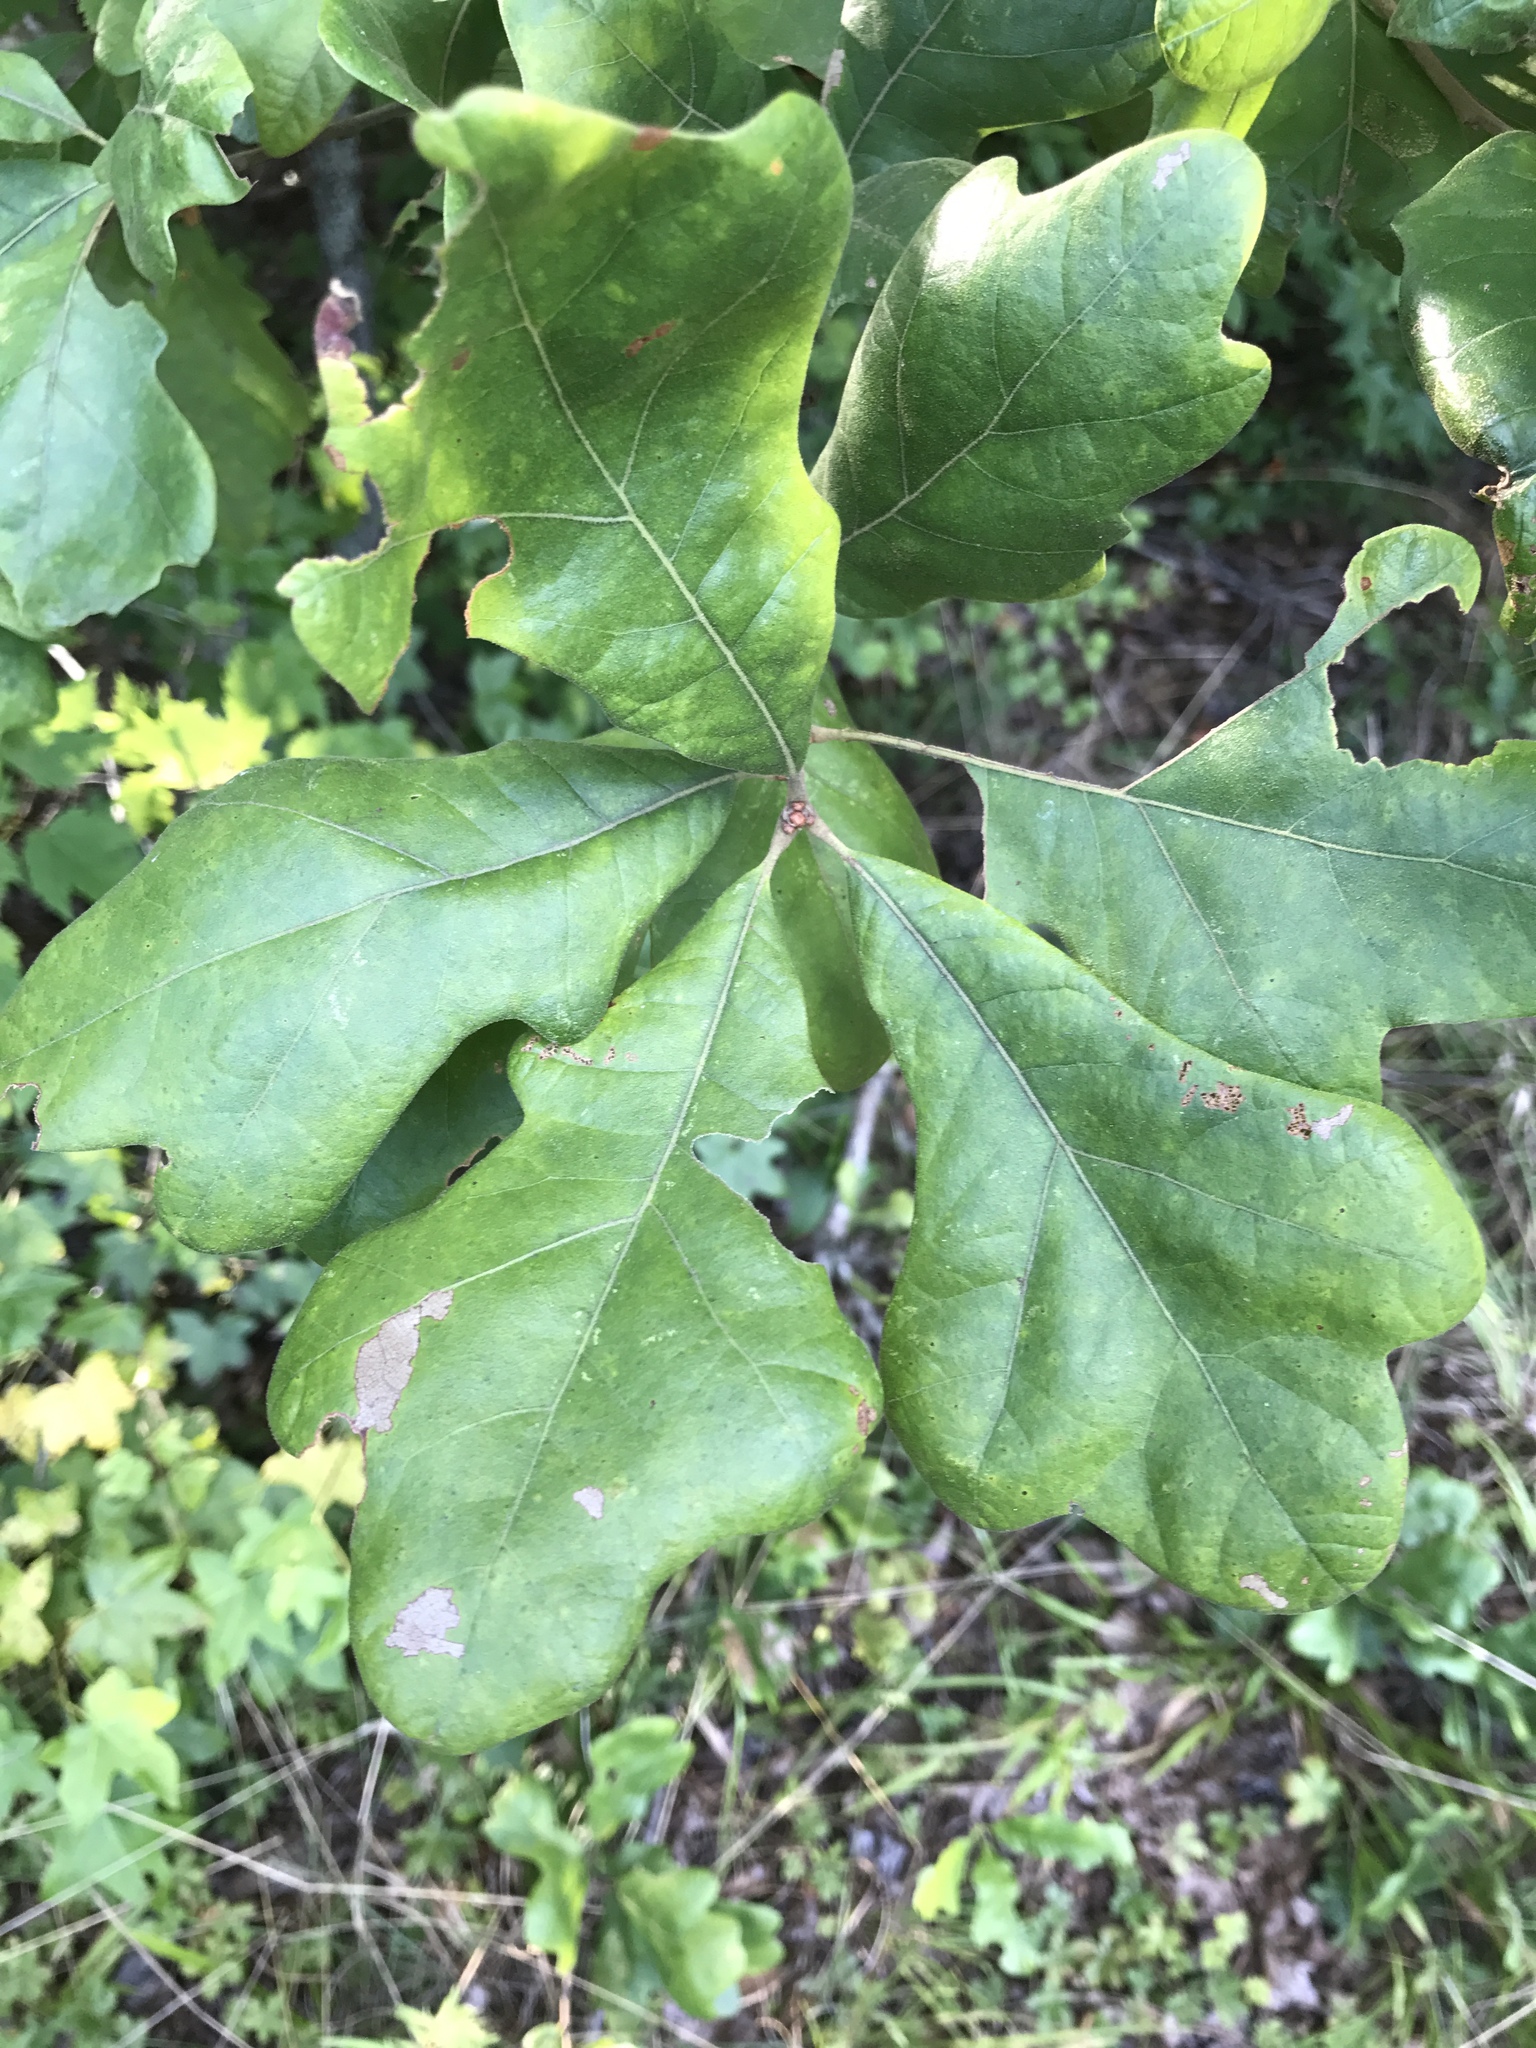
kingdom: Plantae
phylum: Tracheophyta
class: Magnoliopsida
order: Fagales
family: Fagaceae
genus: Quercus
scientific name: Quercus stellata
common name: Post oak
